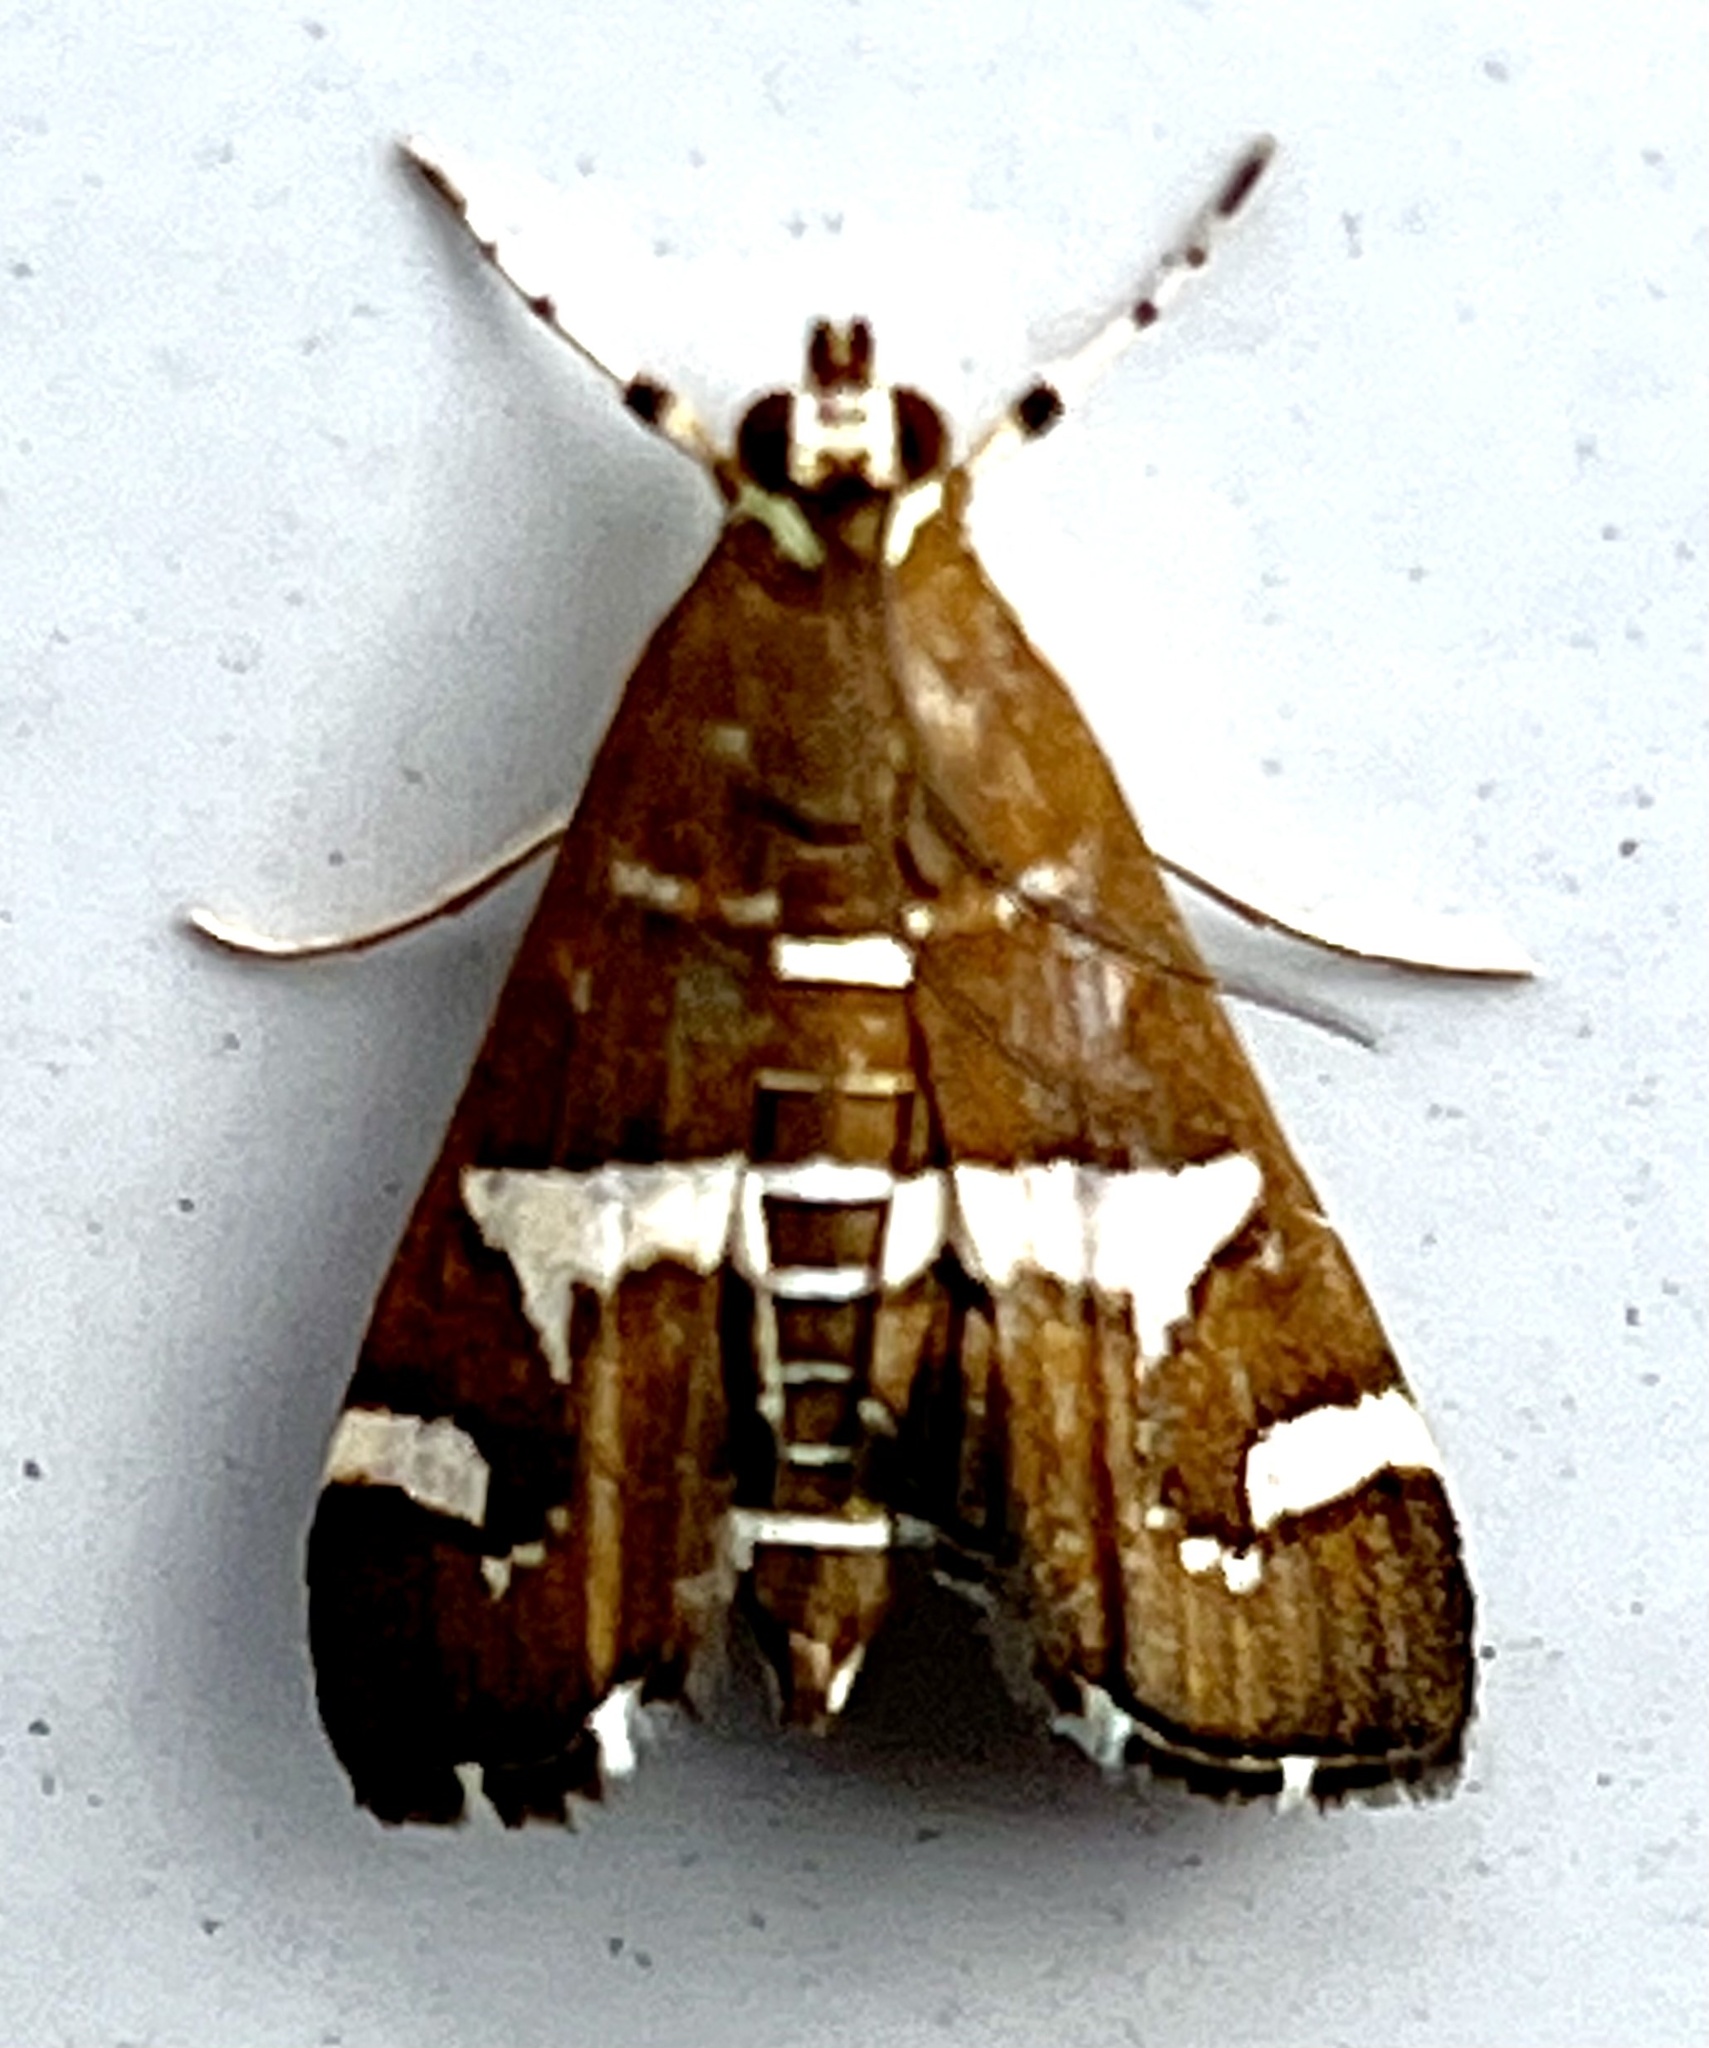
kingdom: Animalia
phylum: Arthropoda
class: Insecta
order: Lepidoptera
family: Crambidae
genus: Spoladea
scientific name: Spoladea recurvalis
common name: Beet webworm moth
